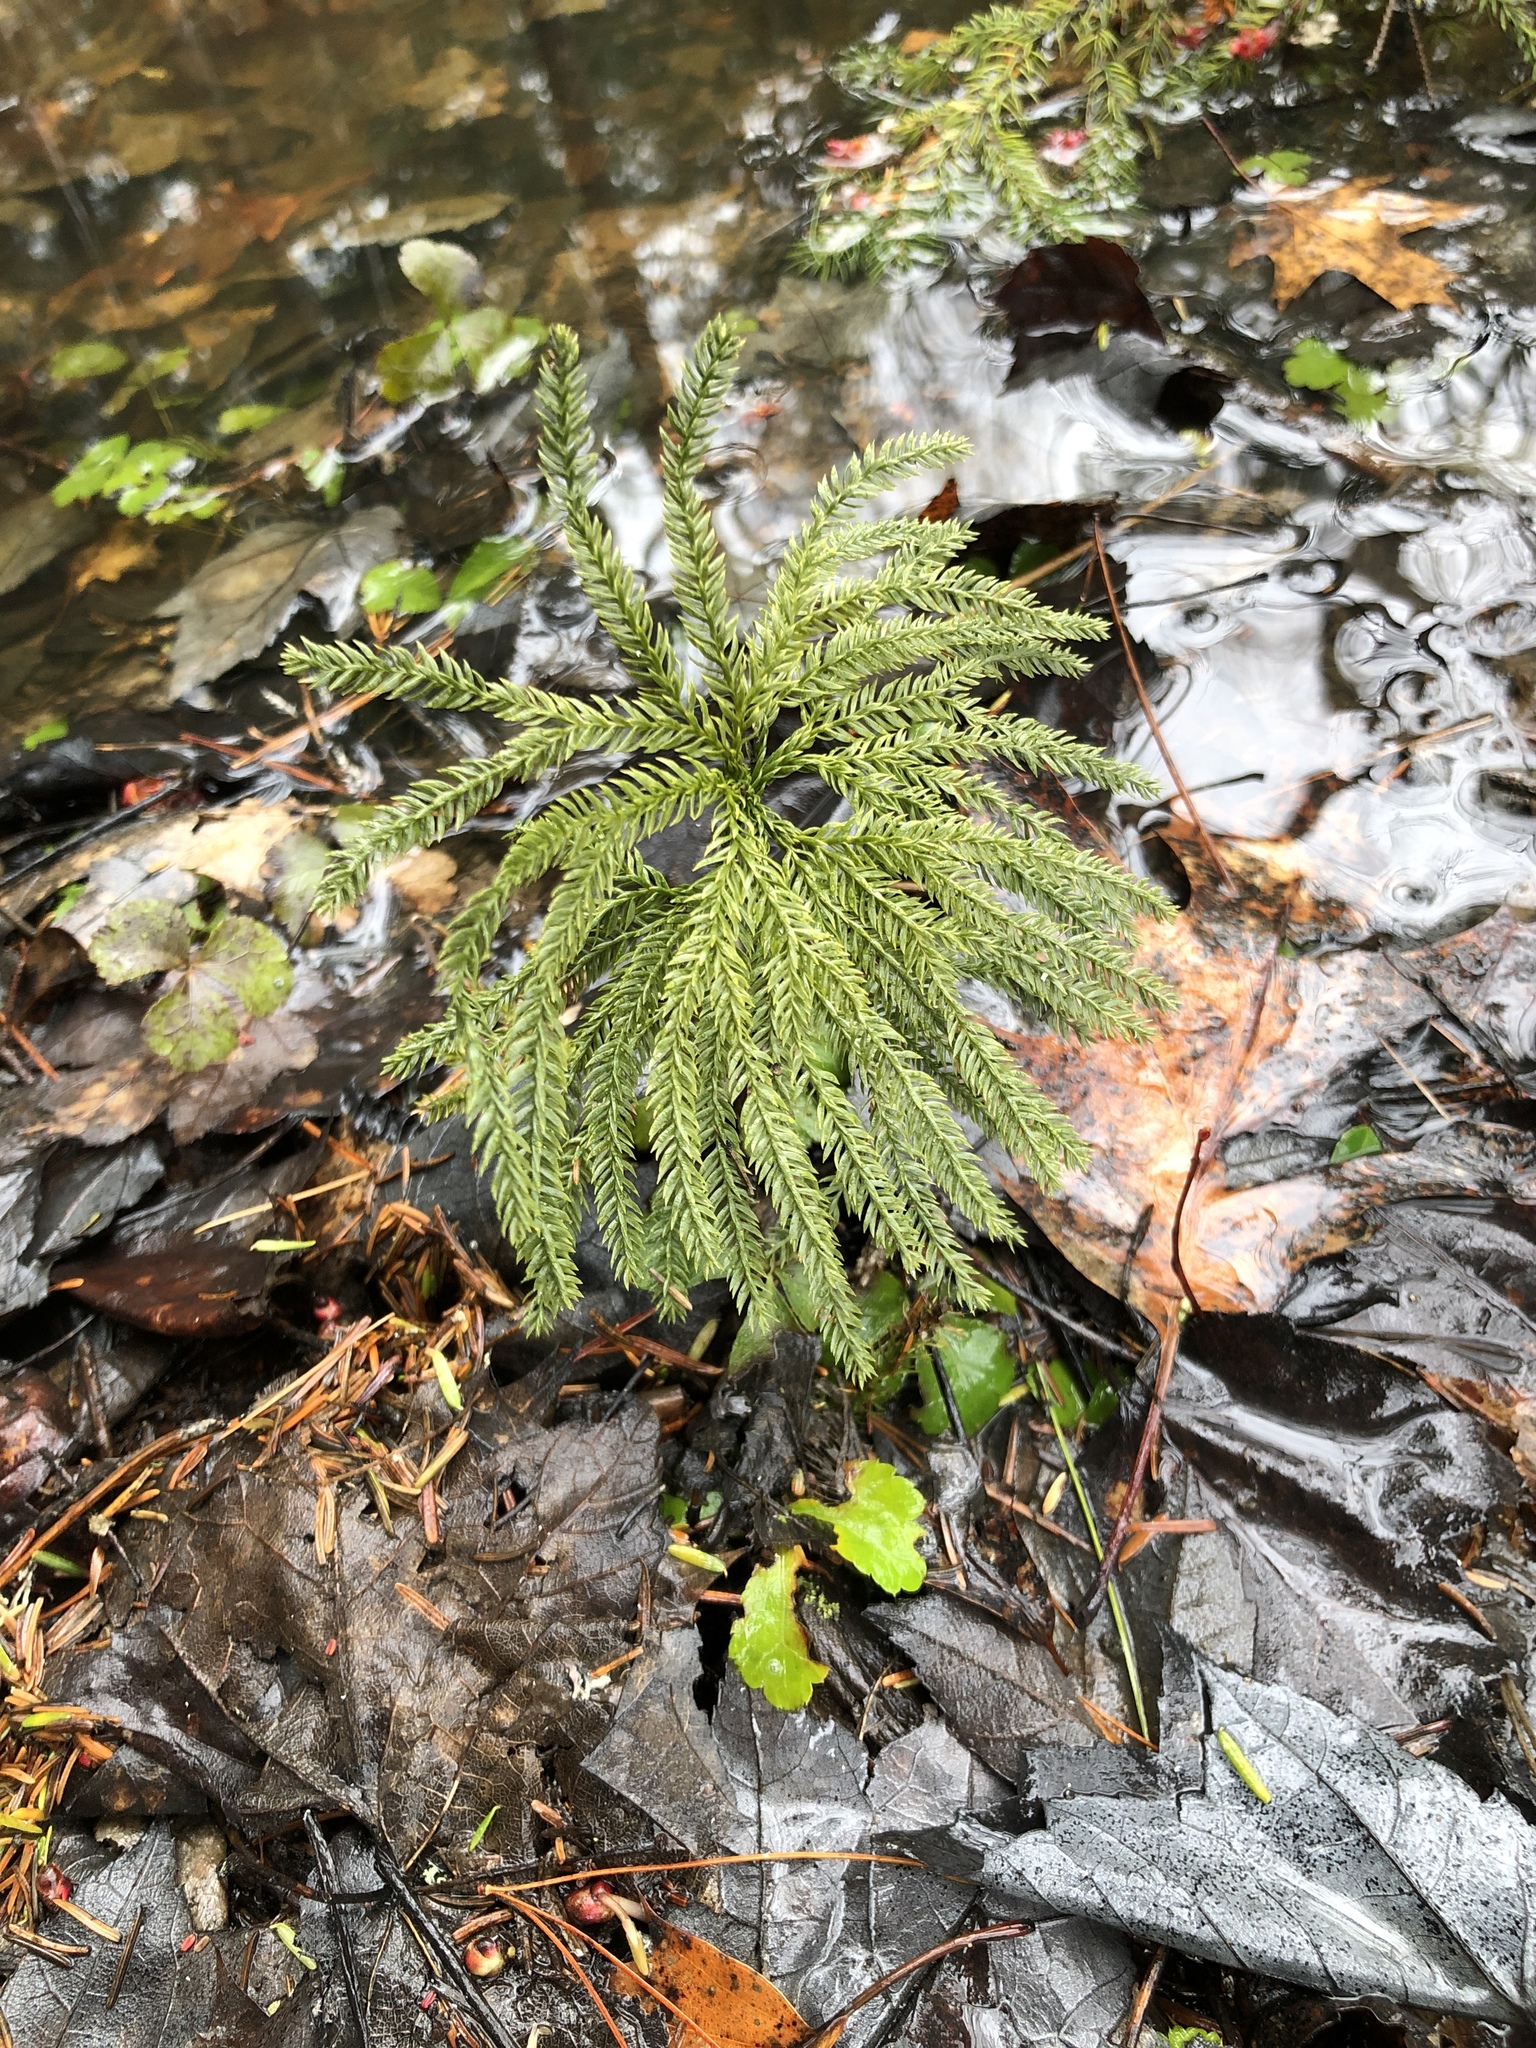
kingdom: Plantae
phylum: Tracheophyta
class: Lycopodiopsida
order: Lycopodiales
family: Lycopodiaceae
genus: Dendrolycopodium
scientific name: Dendrolycopodium obscurum
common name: Common ground-pine
